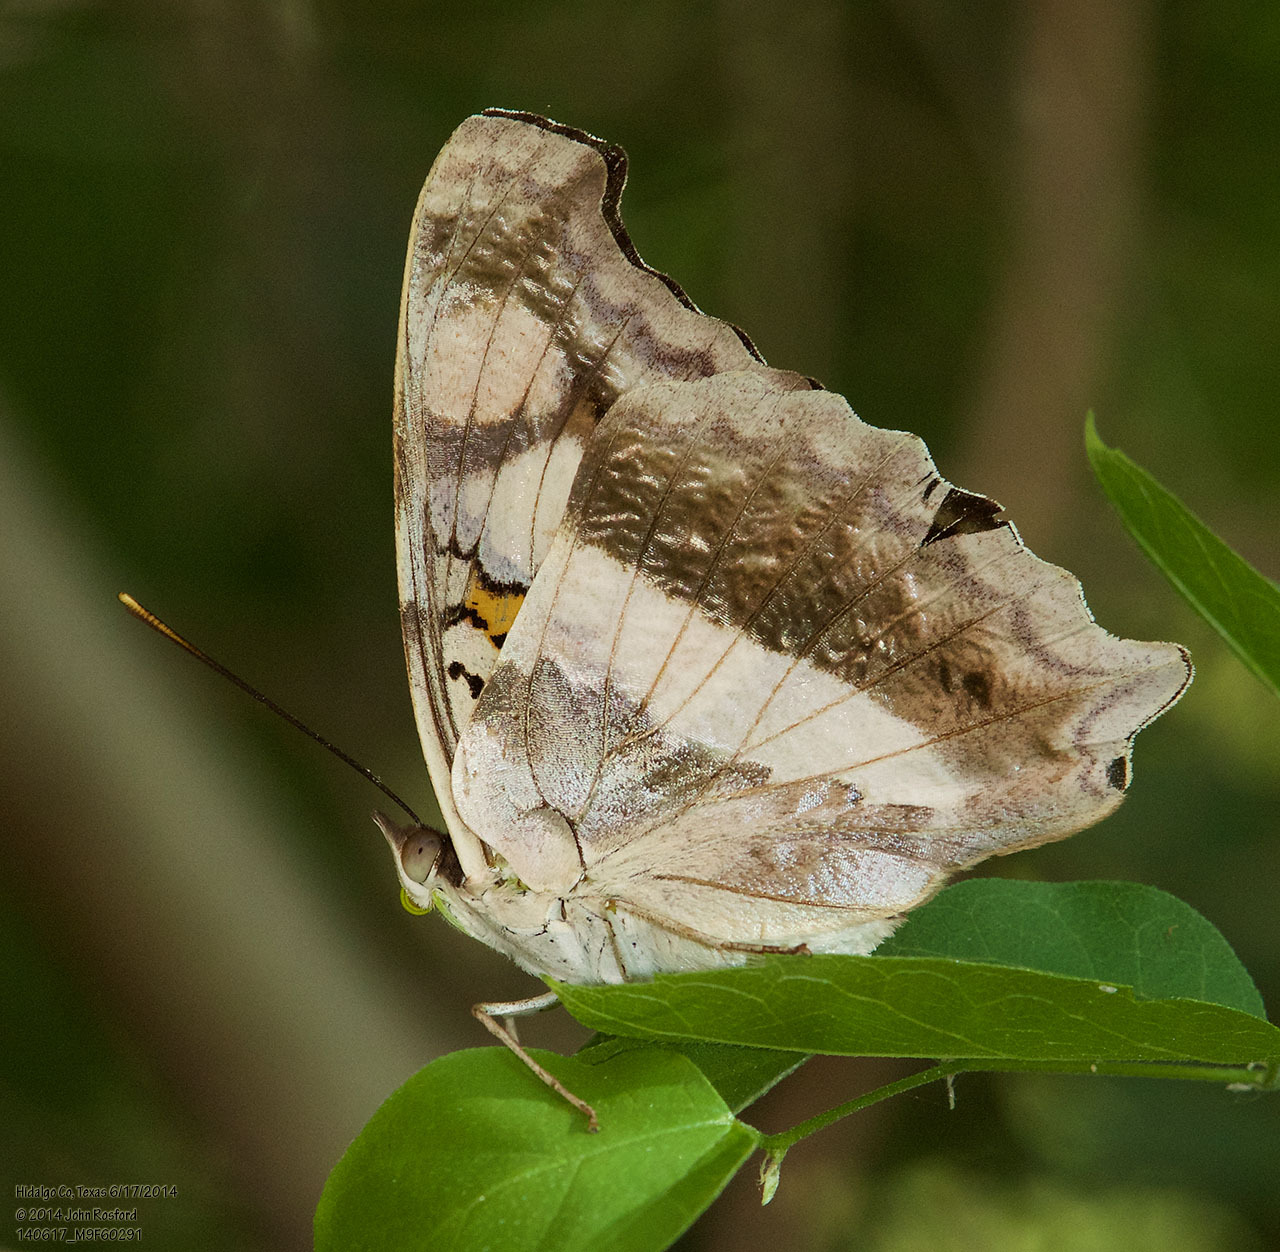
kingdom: Animalia
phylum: Arthropoda
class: Insecta
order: Lepidoptera
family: Nymphalidae
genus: Doxocopa
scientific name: Doxocopa laure
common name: Silver emperor
